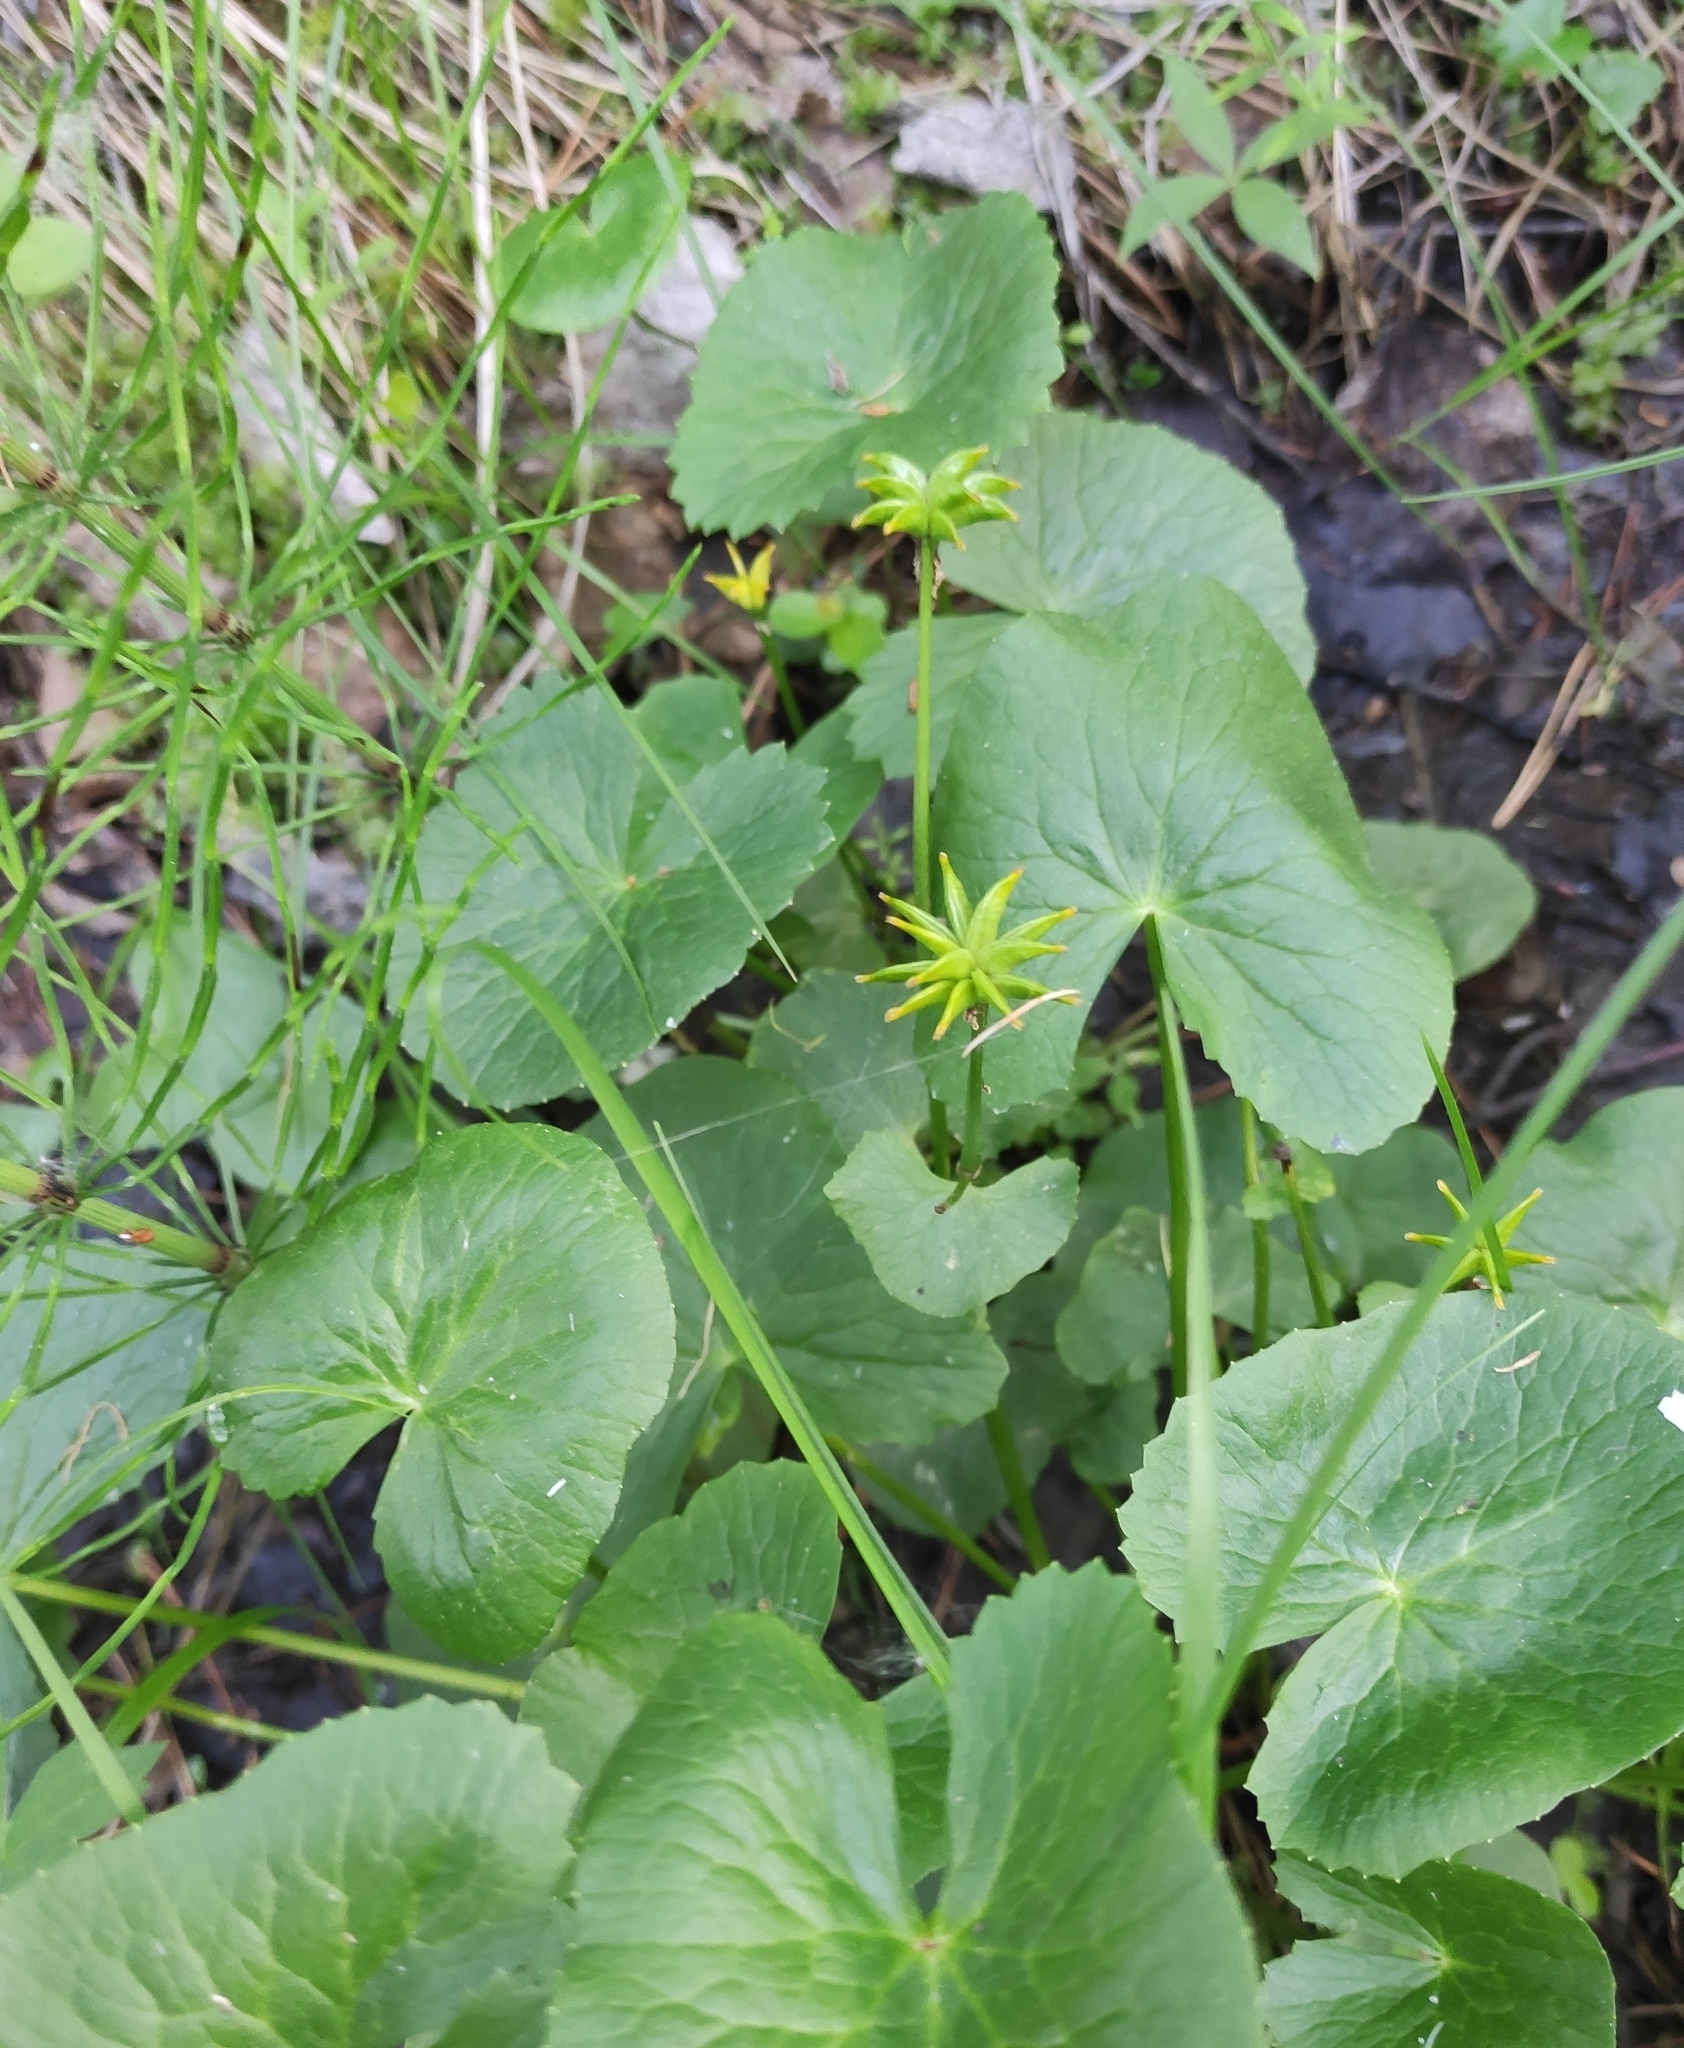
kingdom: Plantae
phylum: Tracheophyta
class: Magnoliopsida
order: Ranunculales
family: Ranunculaceae
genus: Caltha
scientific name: Caltha palustris
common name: Marsh marigold
